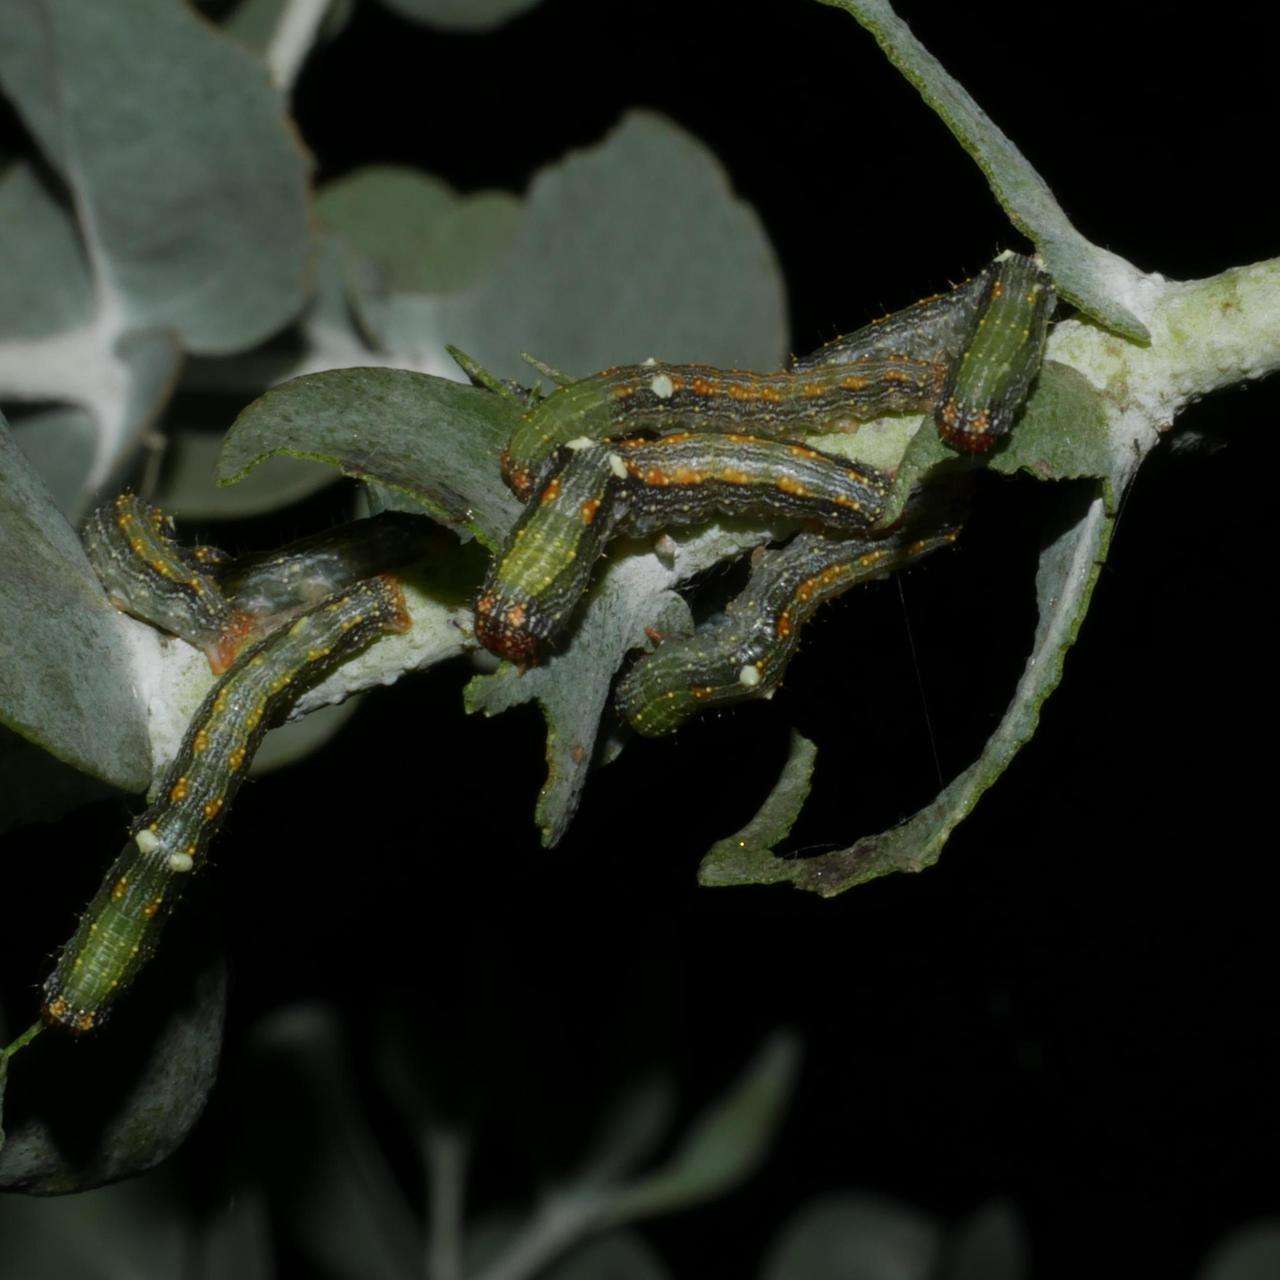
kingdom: Animalia
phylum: Arthropoda
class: Insecta
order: Lepidoptera
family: Geometridae
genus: Mnesampela
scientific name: Mnesampela privata
